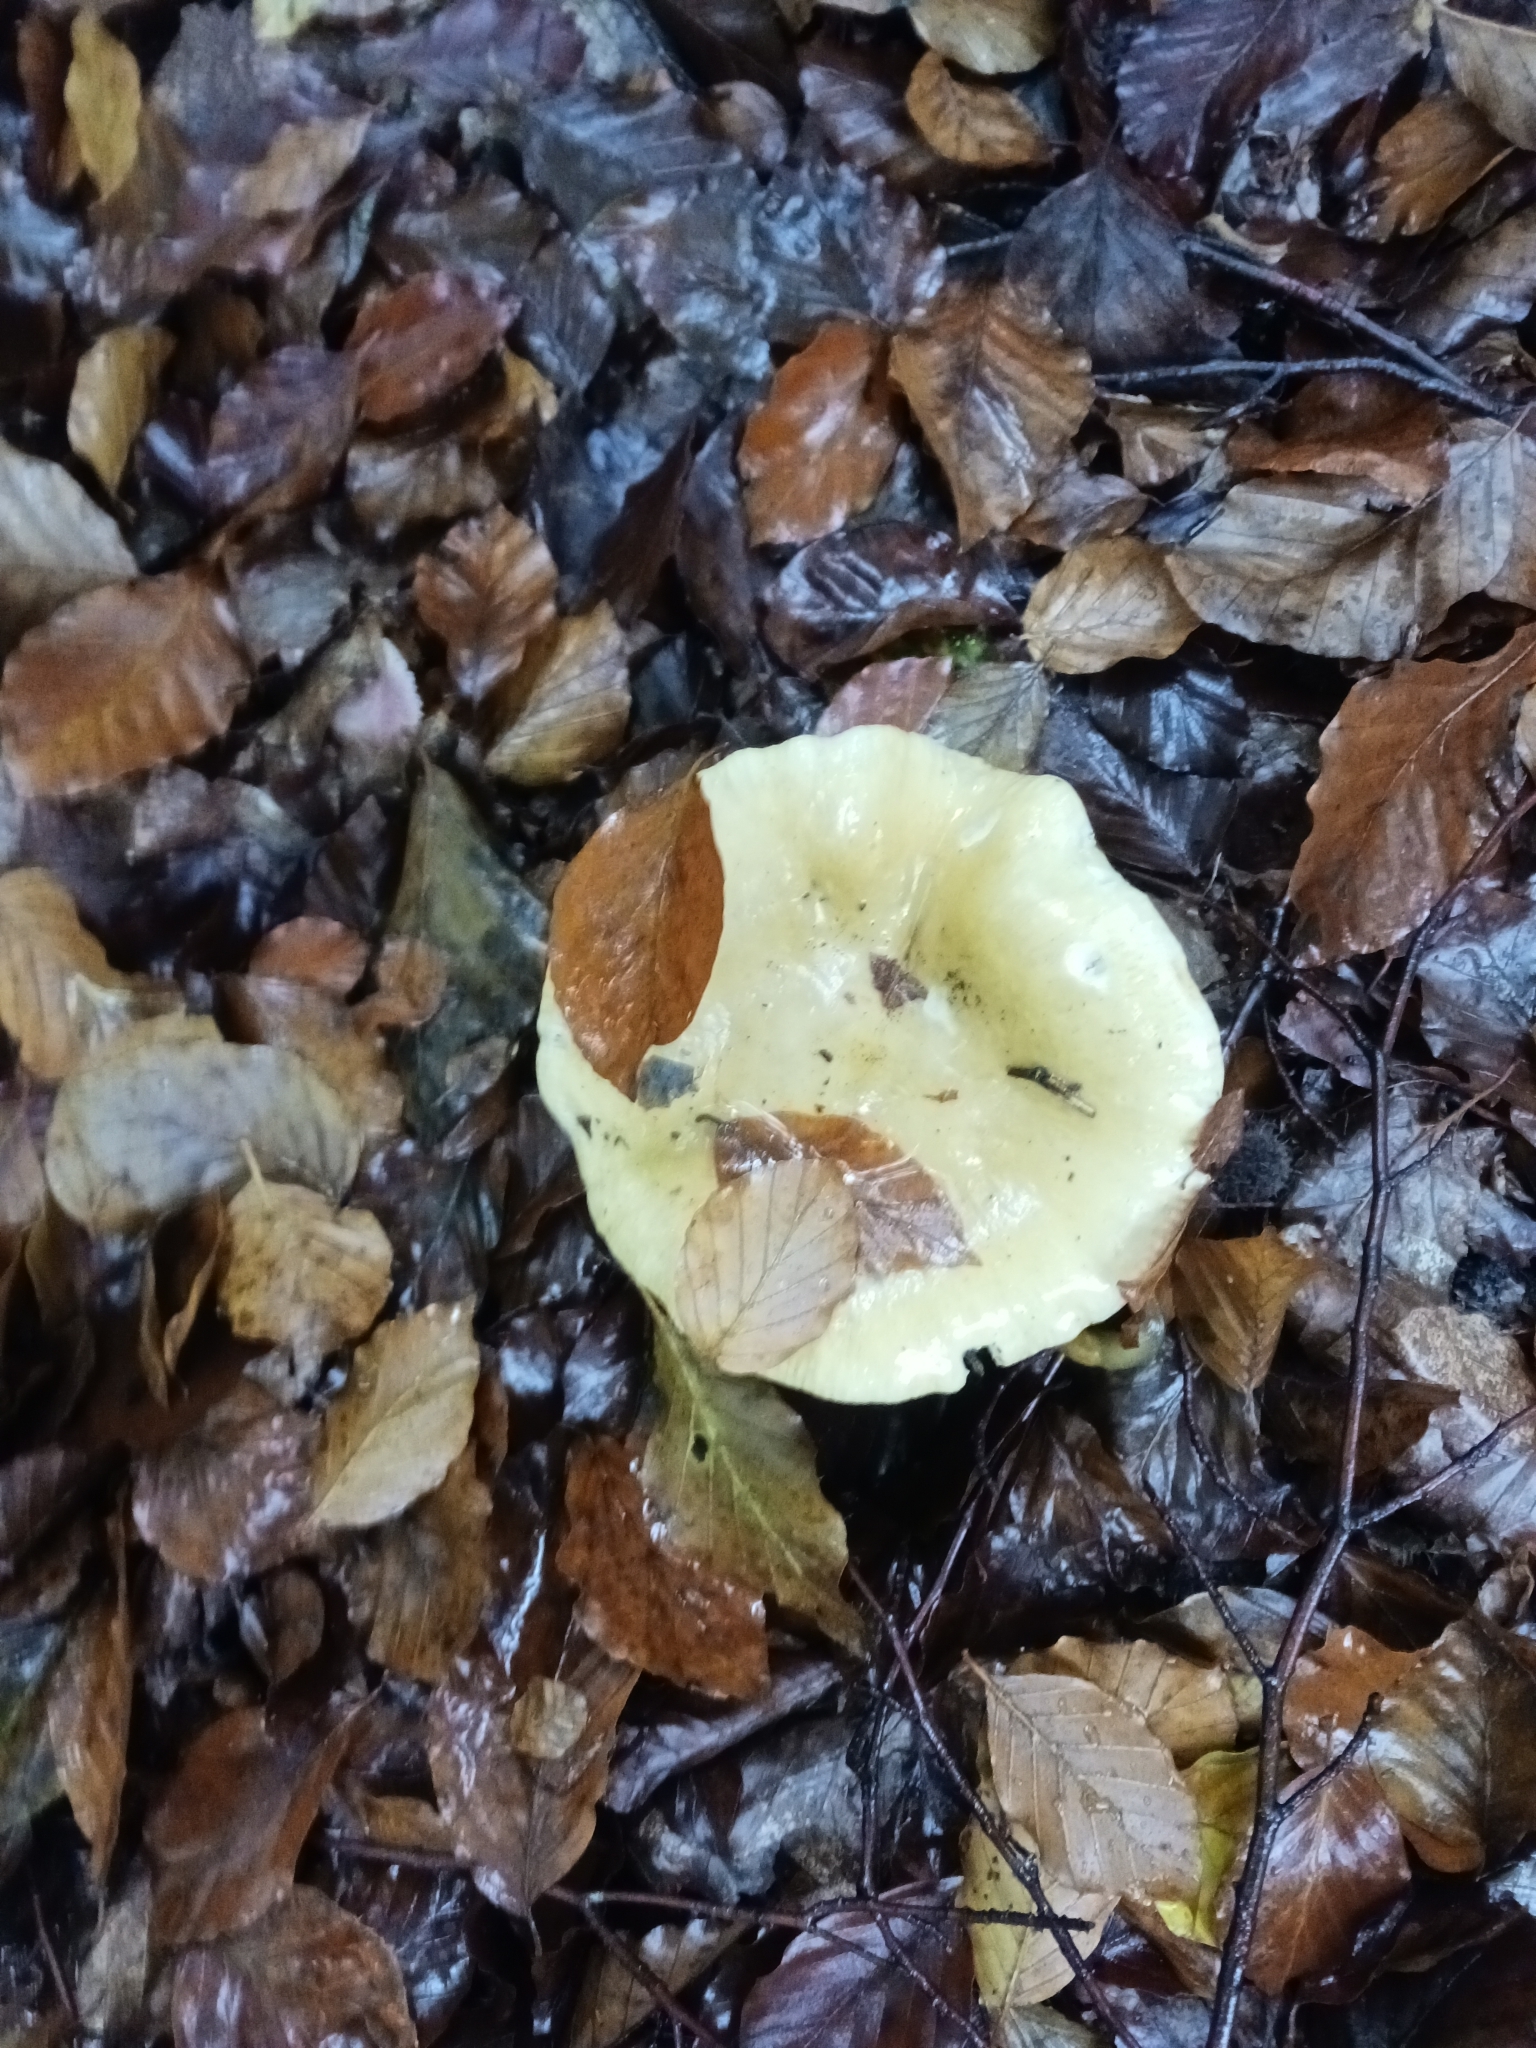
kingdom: Fungi
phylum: Basidiomycota
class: Agaricomycetes
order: Russulales
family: Russulaceae
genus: Russula
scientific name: Russula ochroleuca
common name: Common yellow russula
